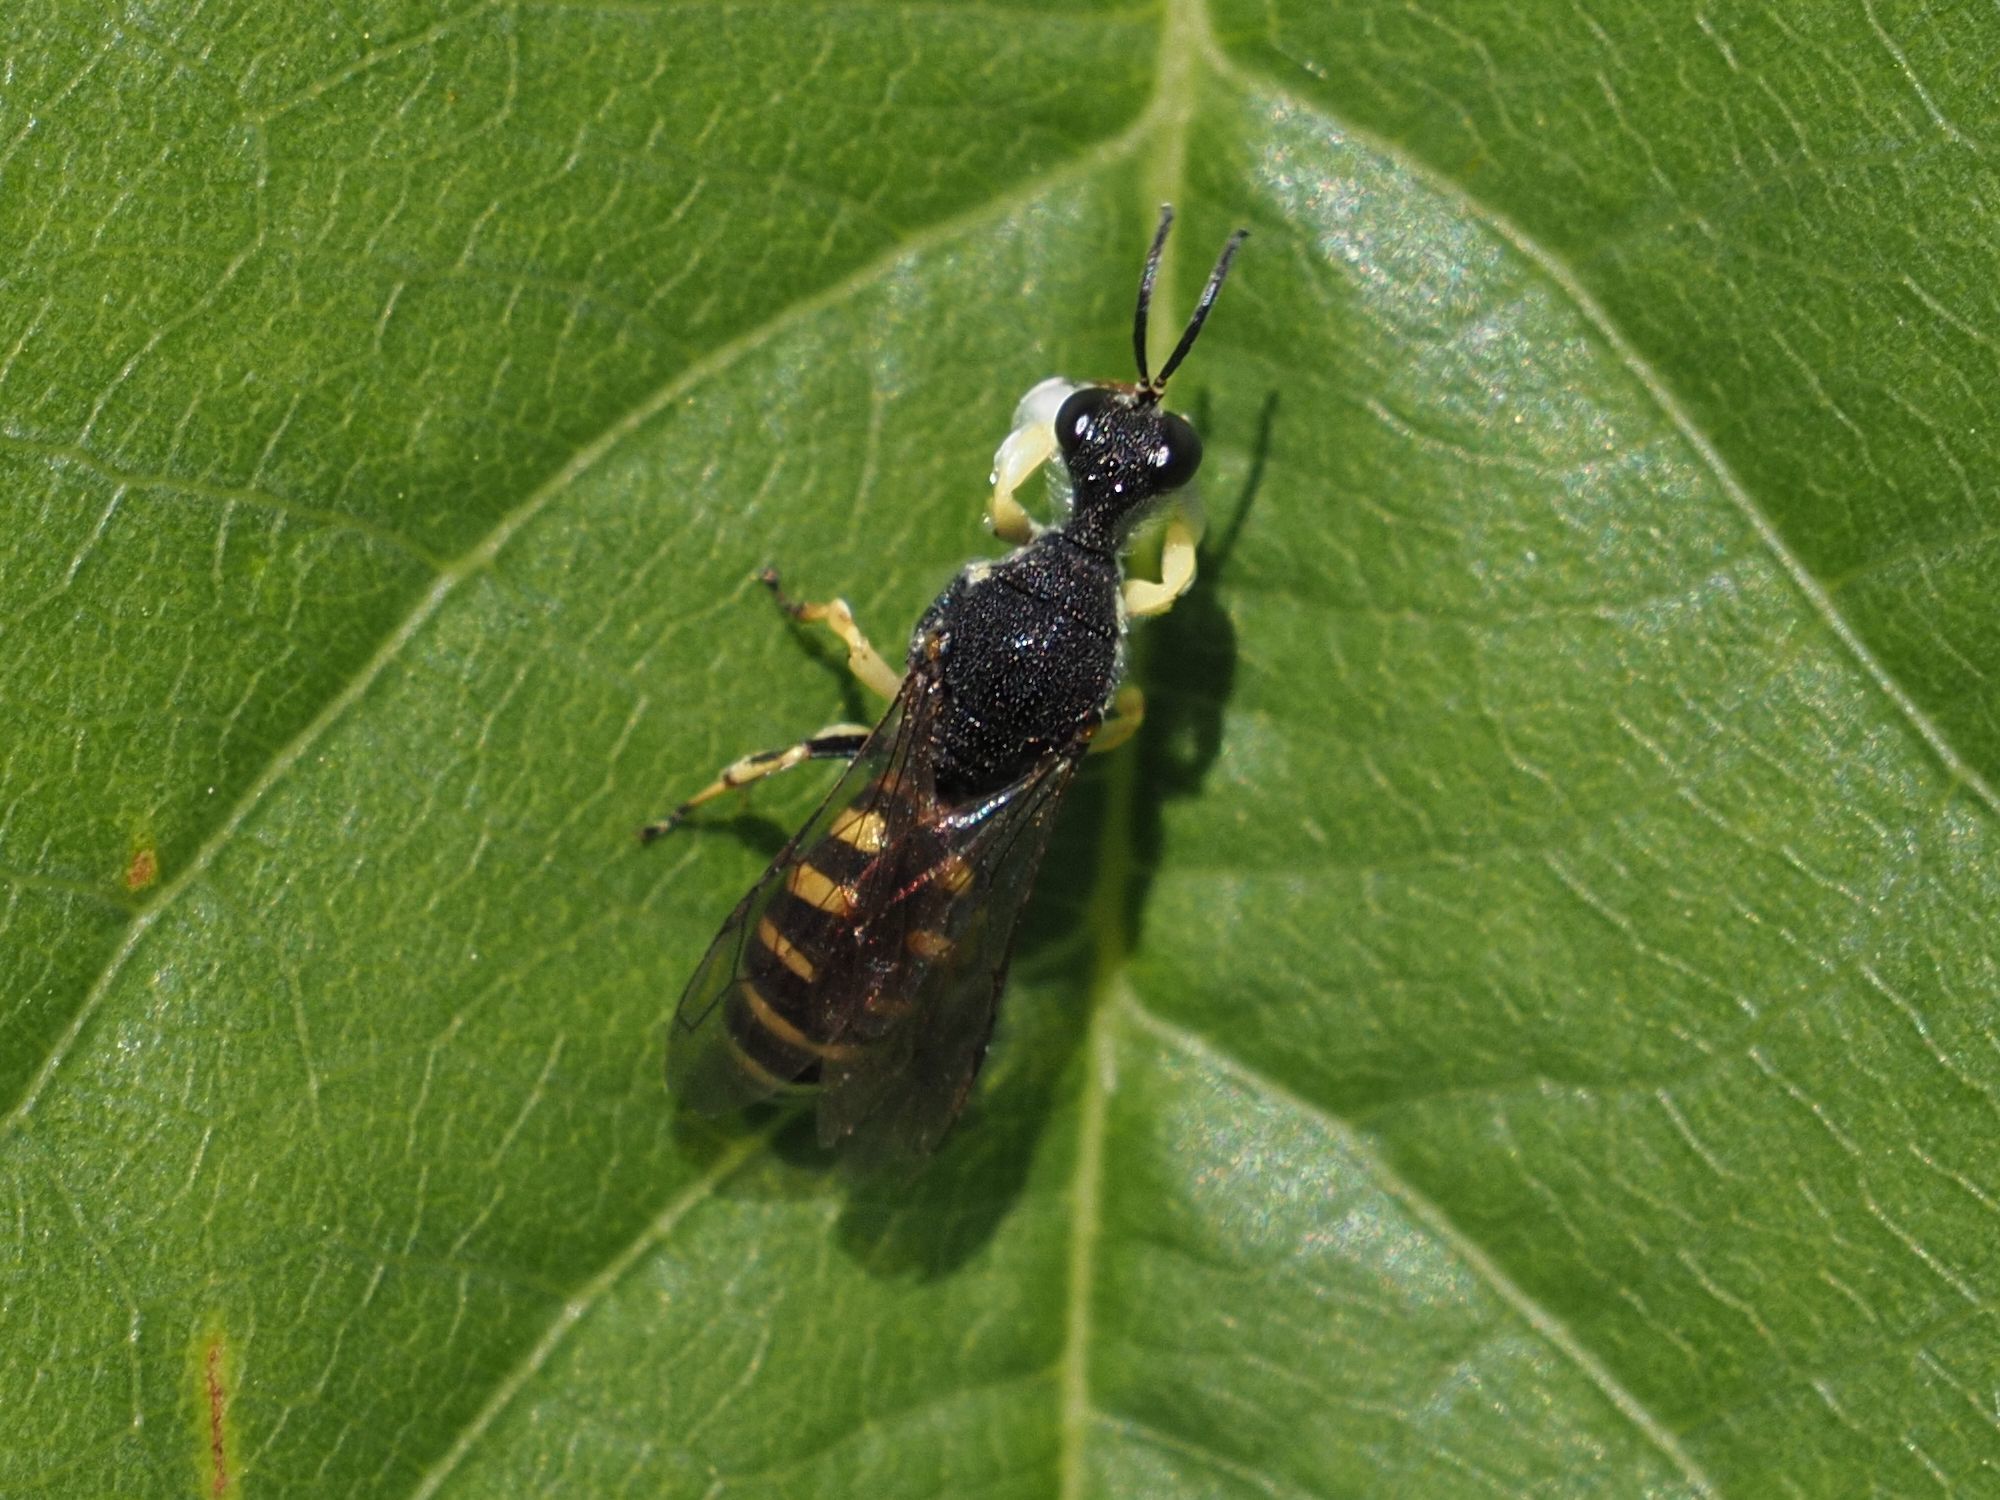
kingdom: Animalia
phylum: Arthropoda
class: Insecta
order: Hymenoptera
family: Crabronidae
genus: Lestica
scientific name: Lestica clypeata
